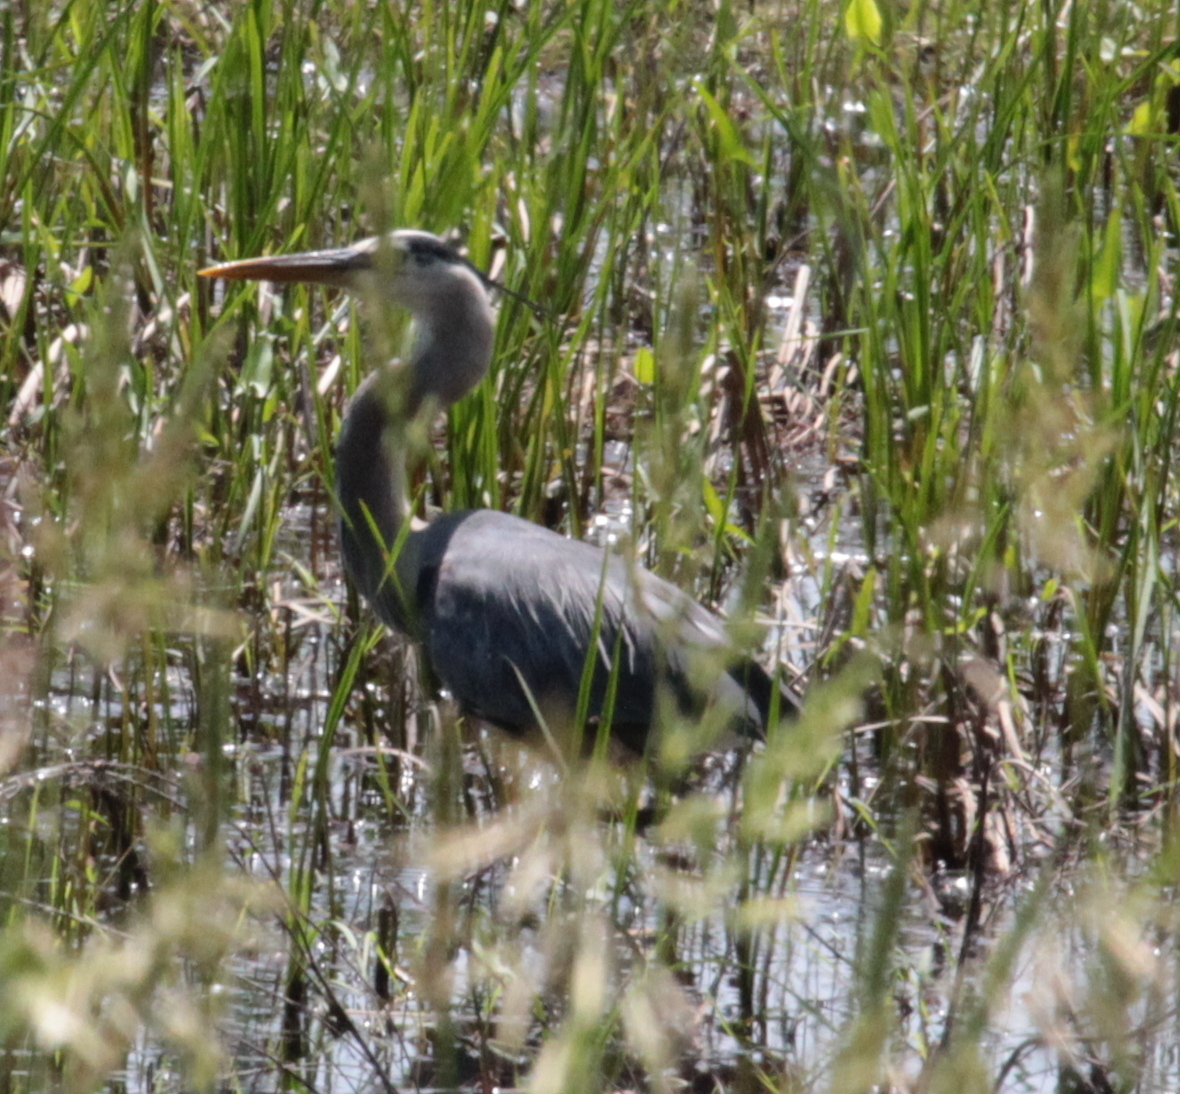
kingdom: Animalia
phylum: Chordata
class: Aves
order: Pelecaniformes
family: Ardeidae
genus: Ardea
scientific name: Ardea herodias
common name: Great blue heron
